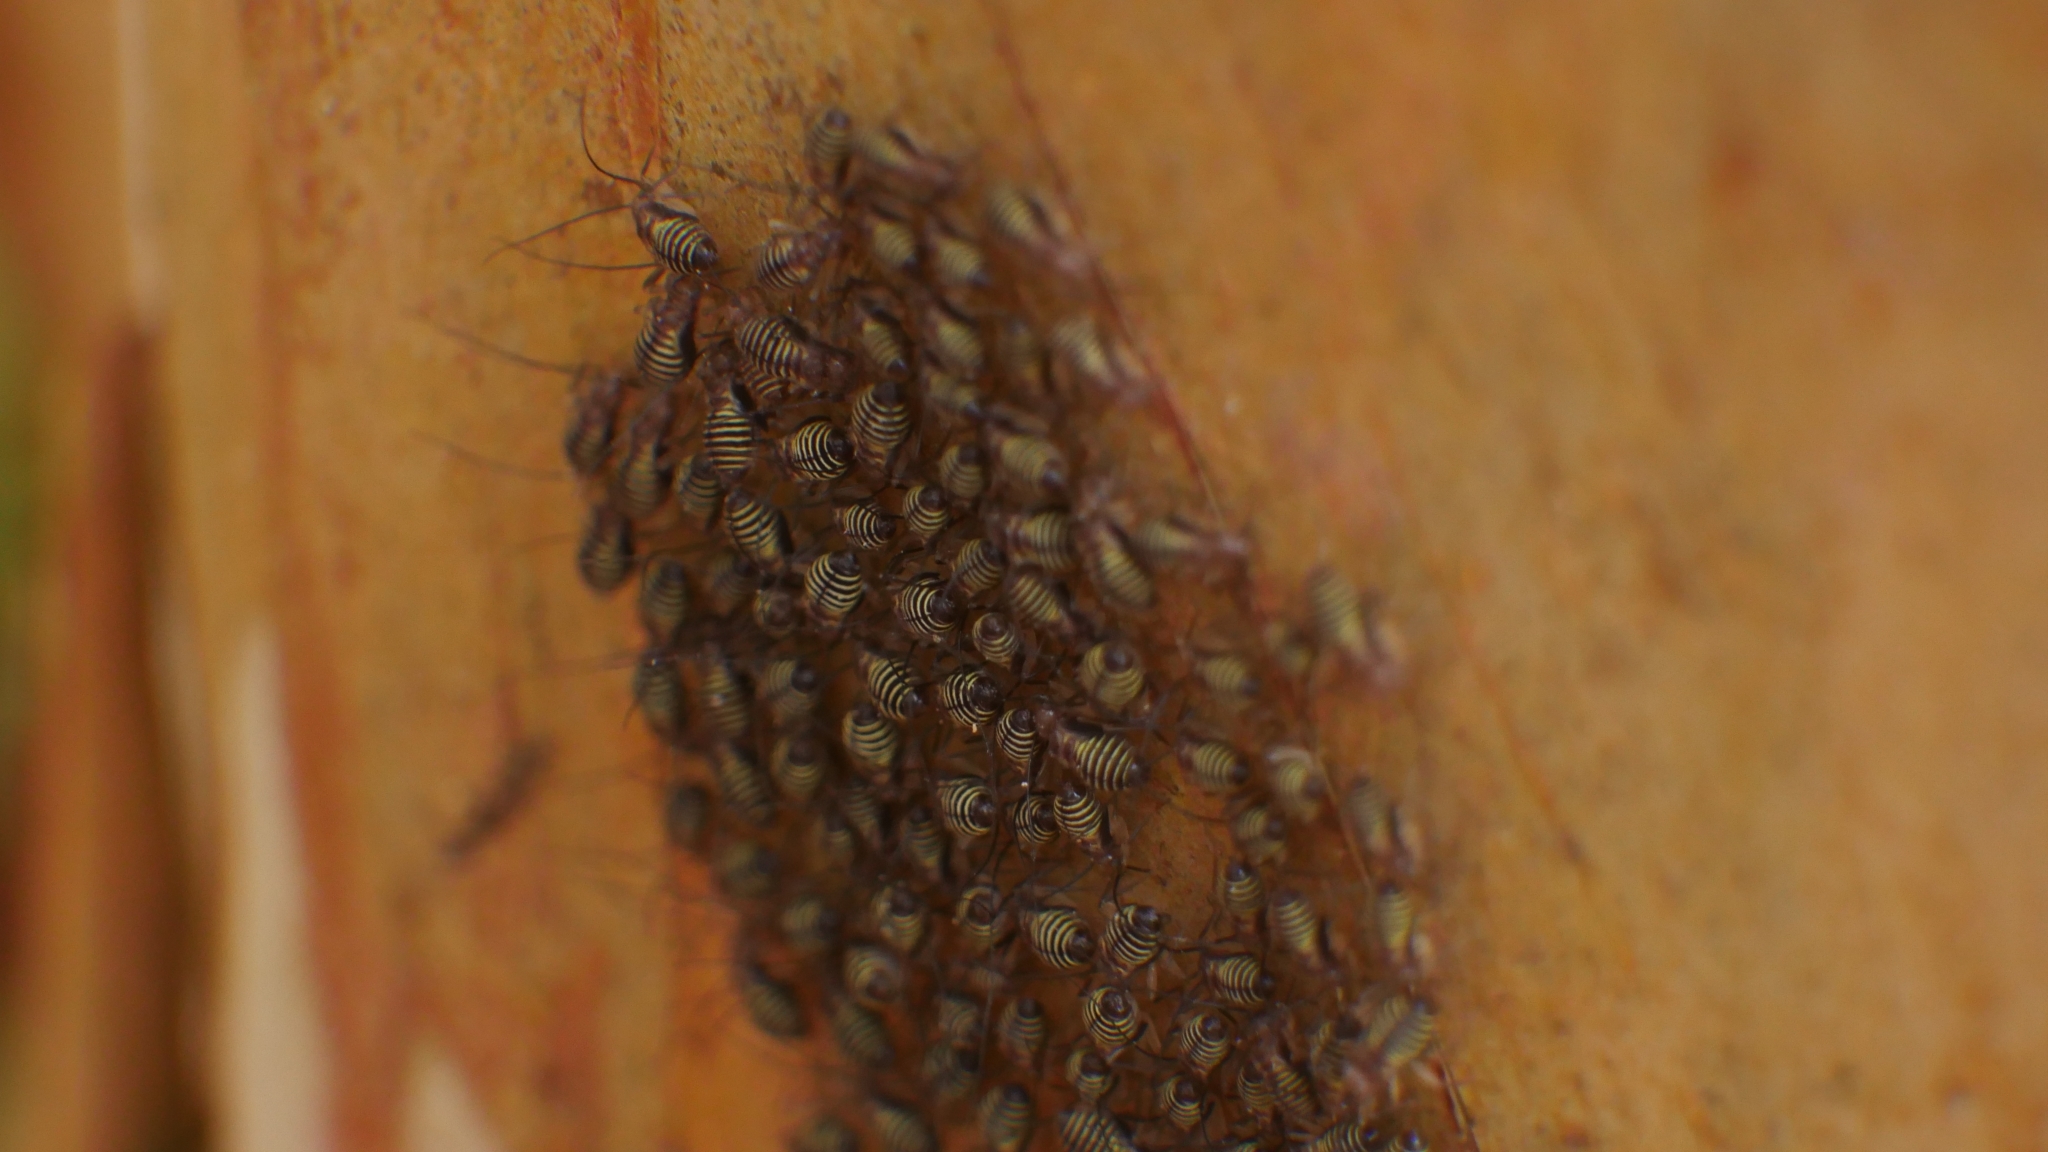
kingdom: Animalia
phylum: Arthropoda
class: Insecta
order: Psocodea
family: Psocidae
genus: Cerastipsocus
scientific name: Cerastipsocus venosus
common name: Tree cattle
